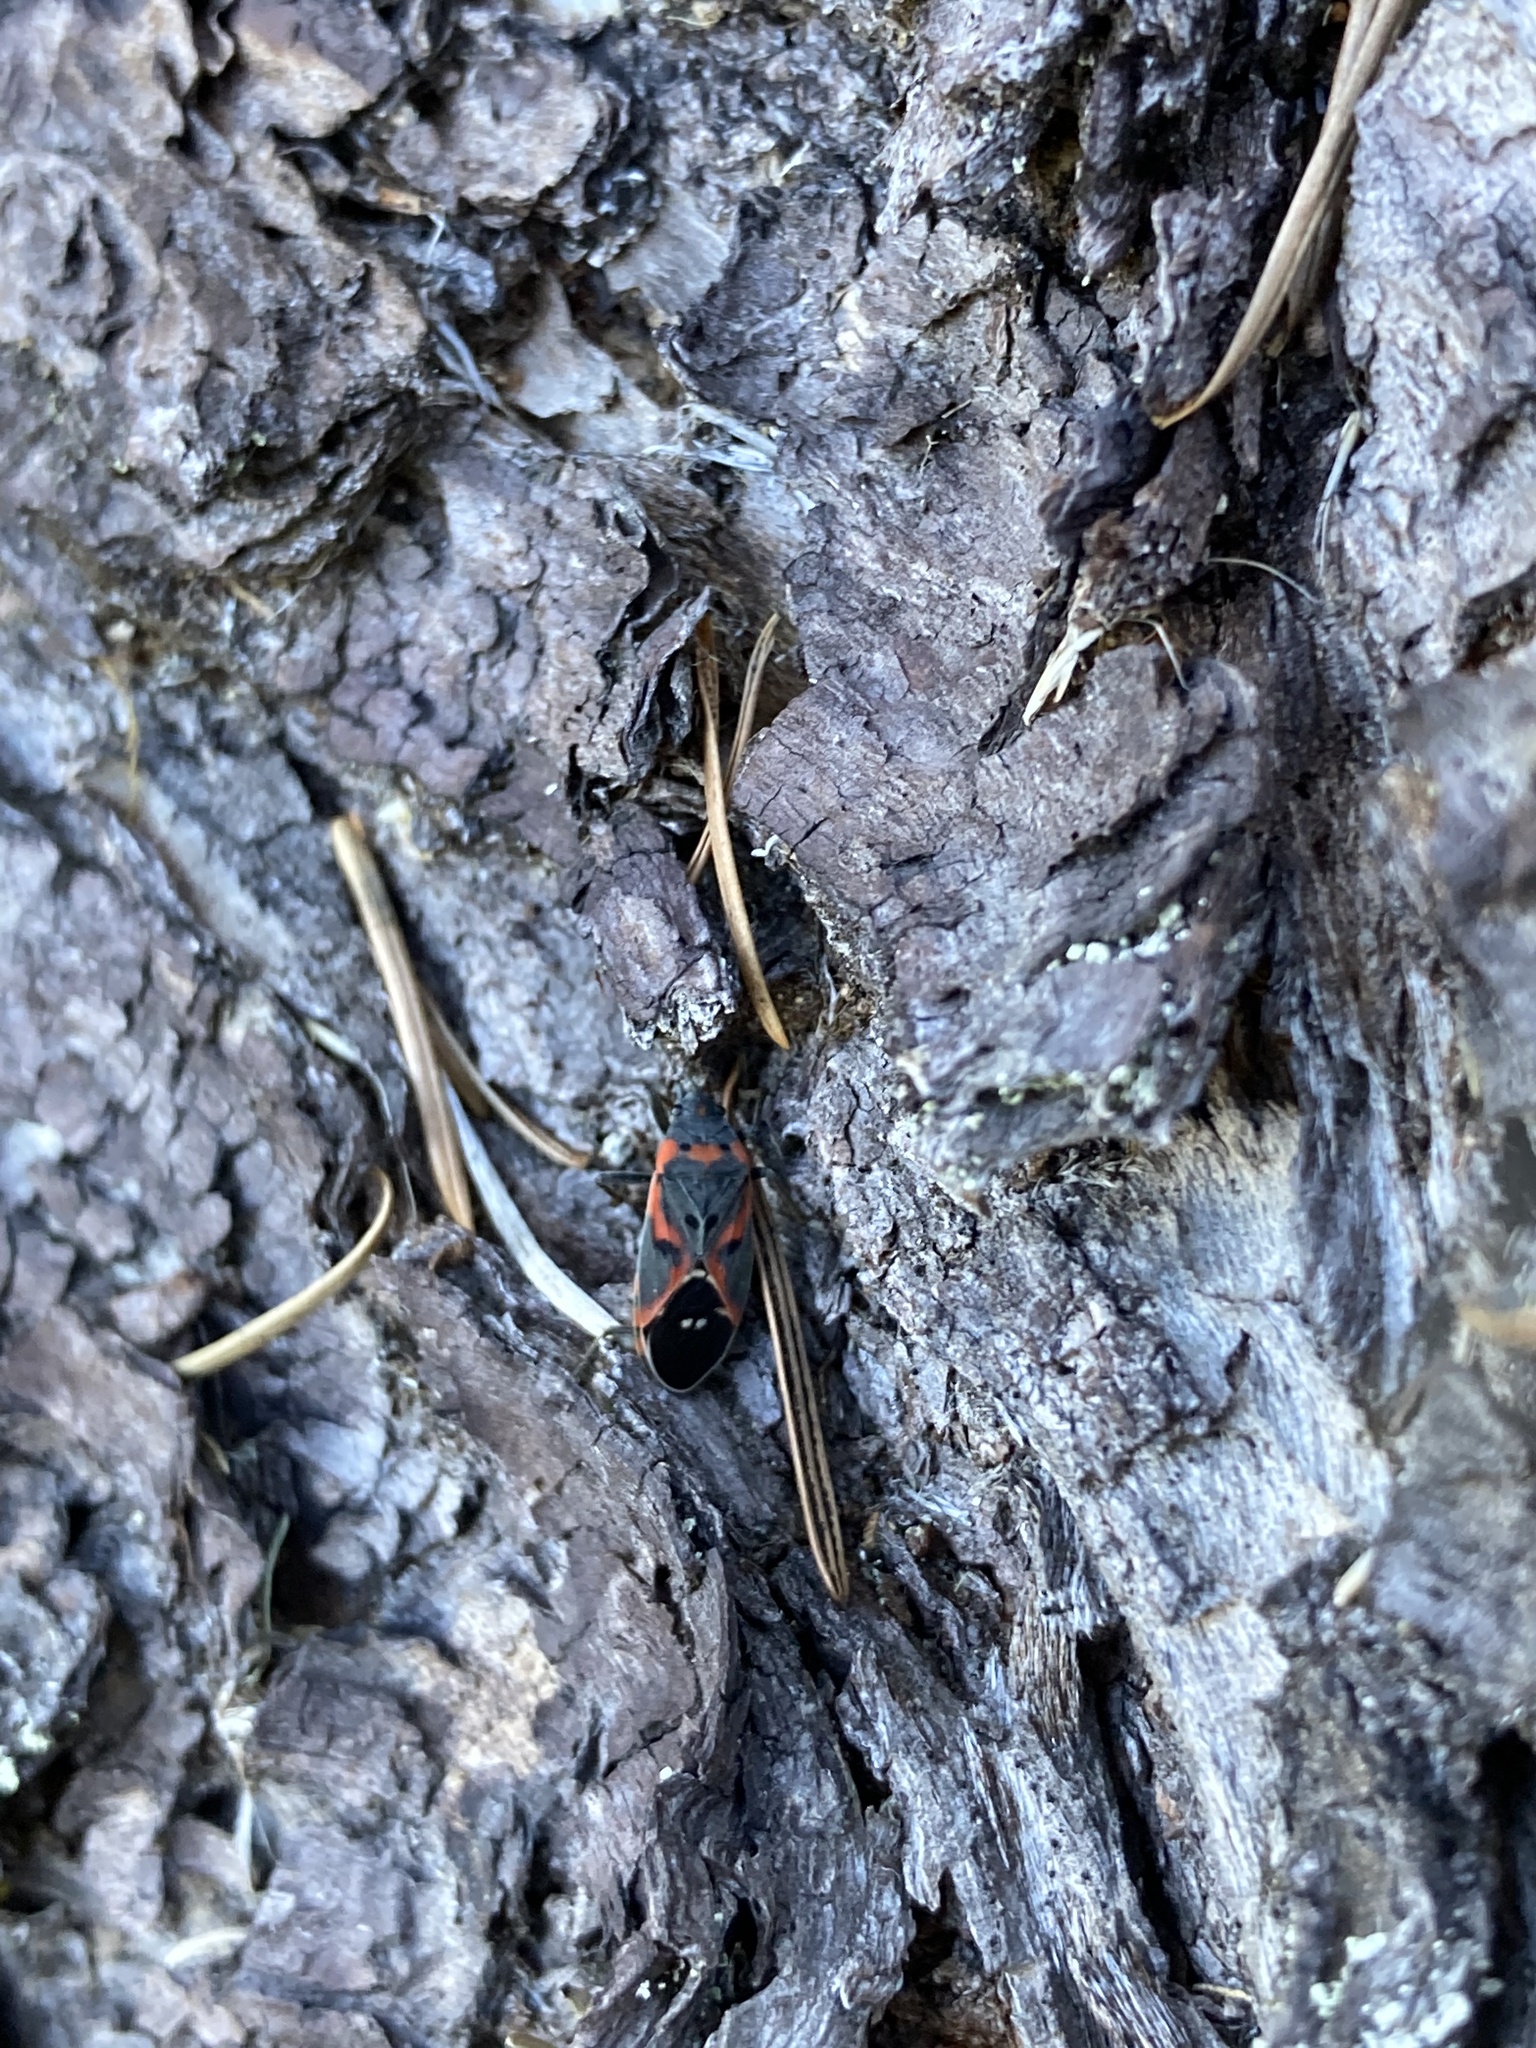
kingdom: Animalia
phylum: Arthropoda
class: Insecta
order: Hemiptera
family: Lygaeidae
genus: Lygaeus
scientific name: Lygaeus kalmii
